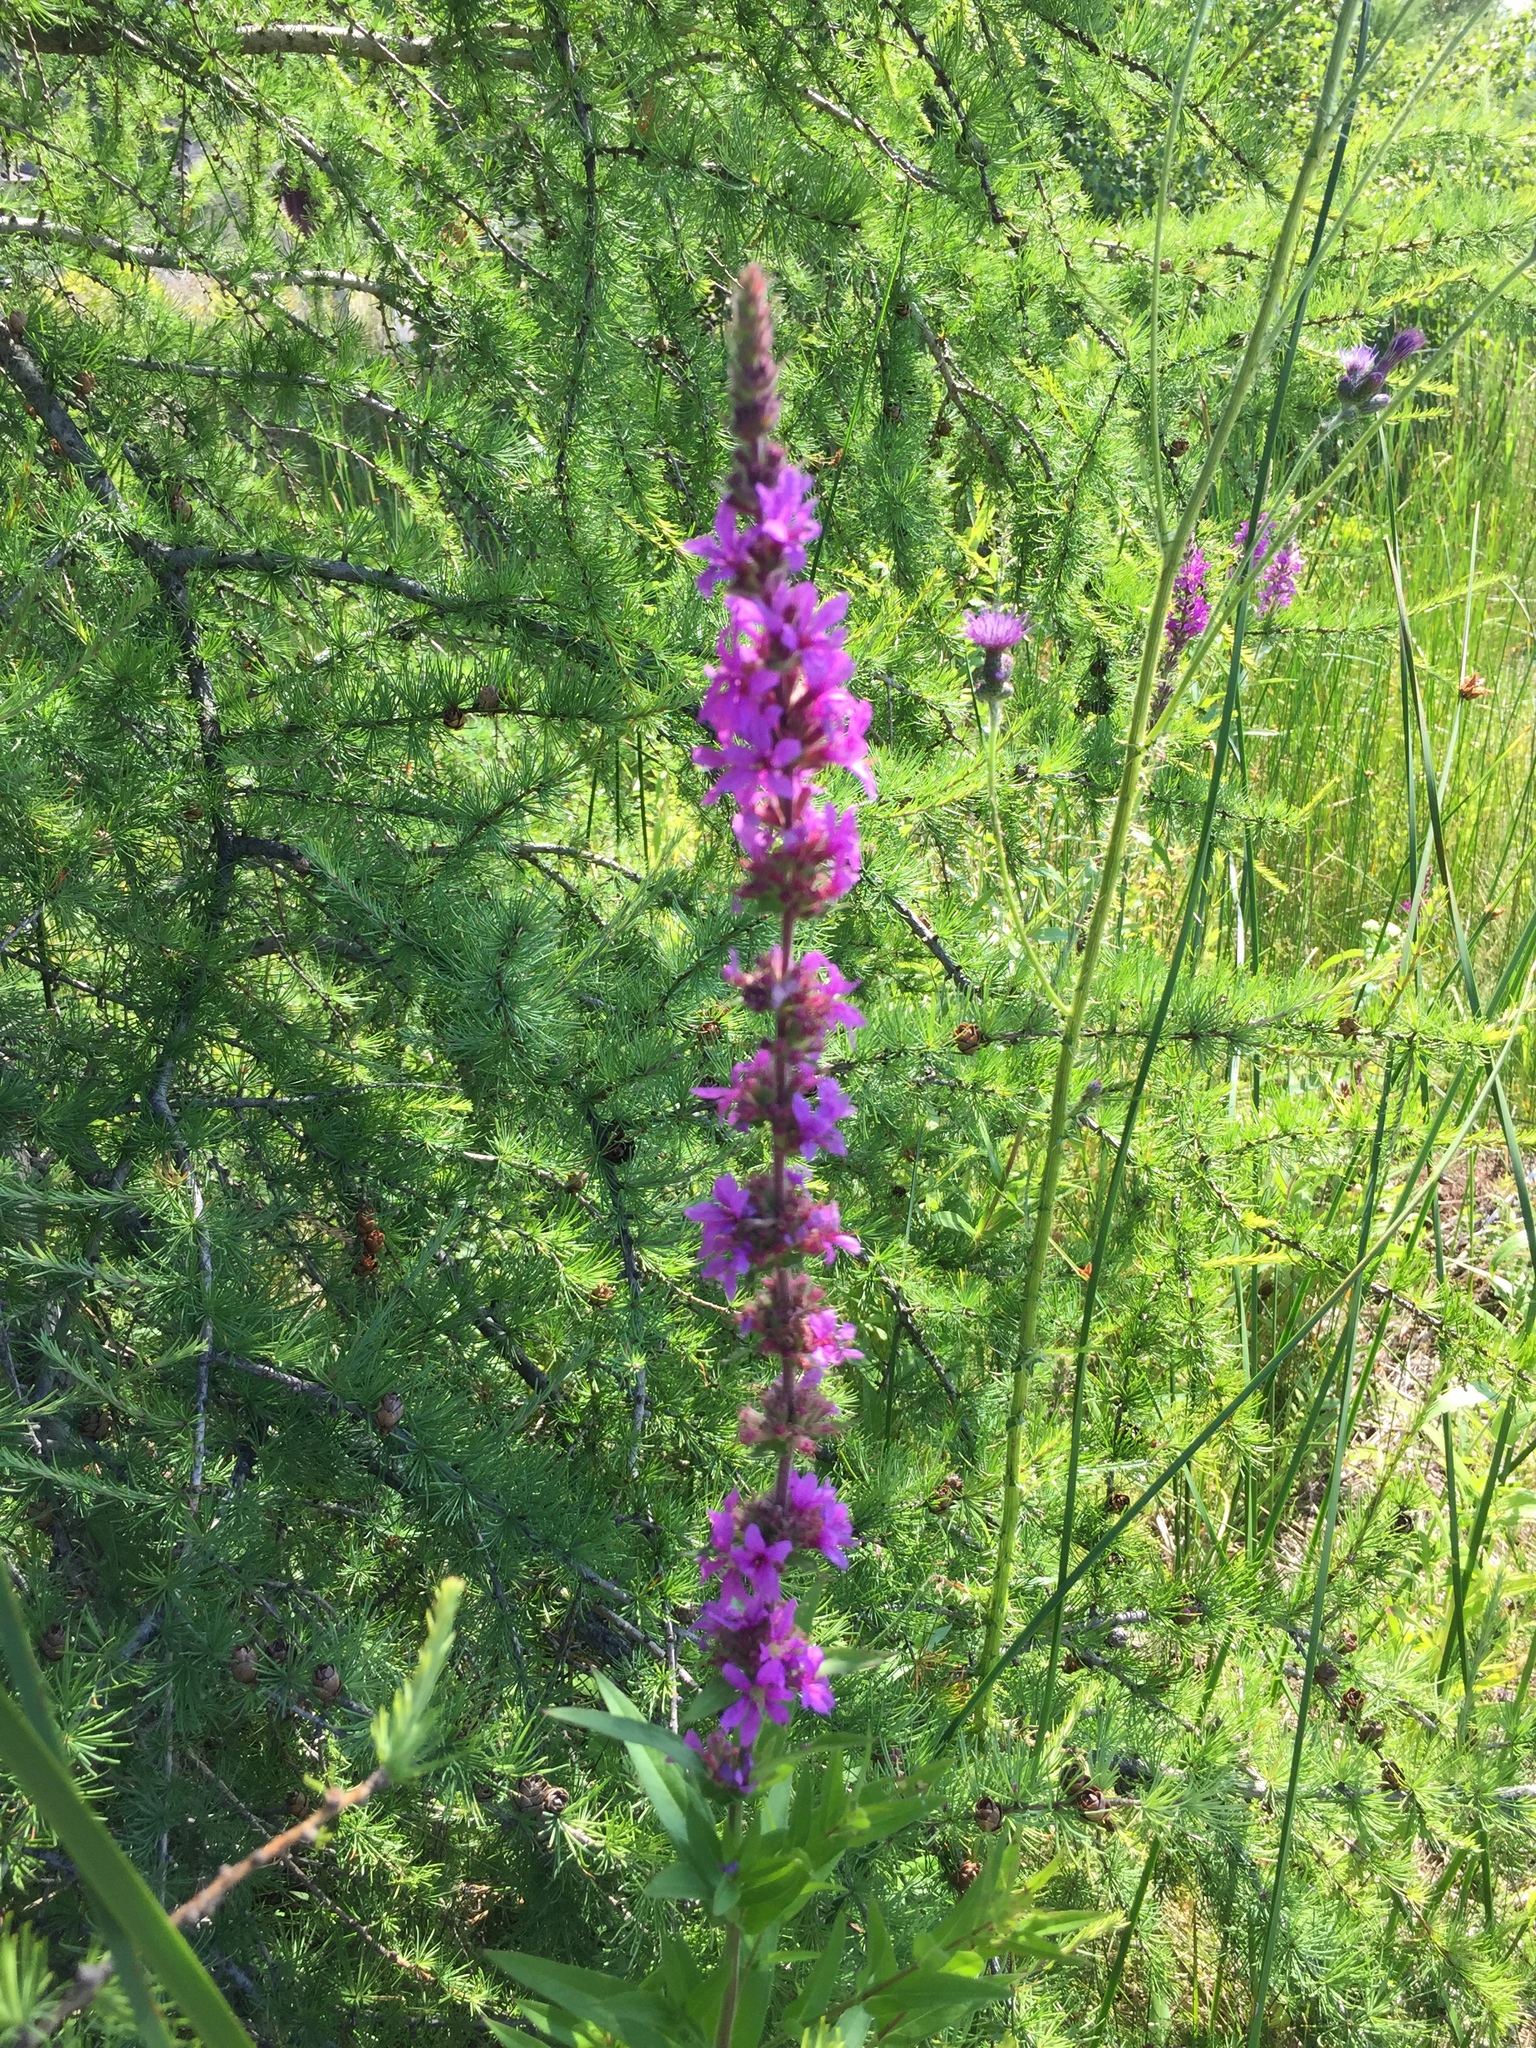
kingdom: Plantae
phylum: Tracheophyta
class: Magnoliopsida
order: Myrtales
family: Lythraceae
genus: Lythrum
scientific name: Lythrum salicaria
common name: Purple loosestrife
